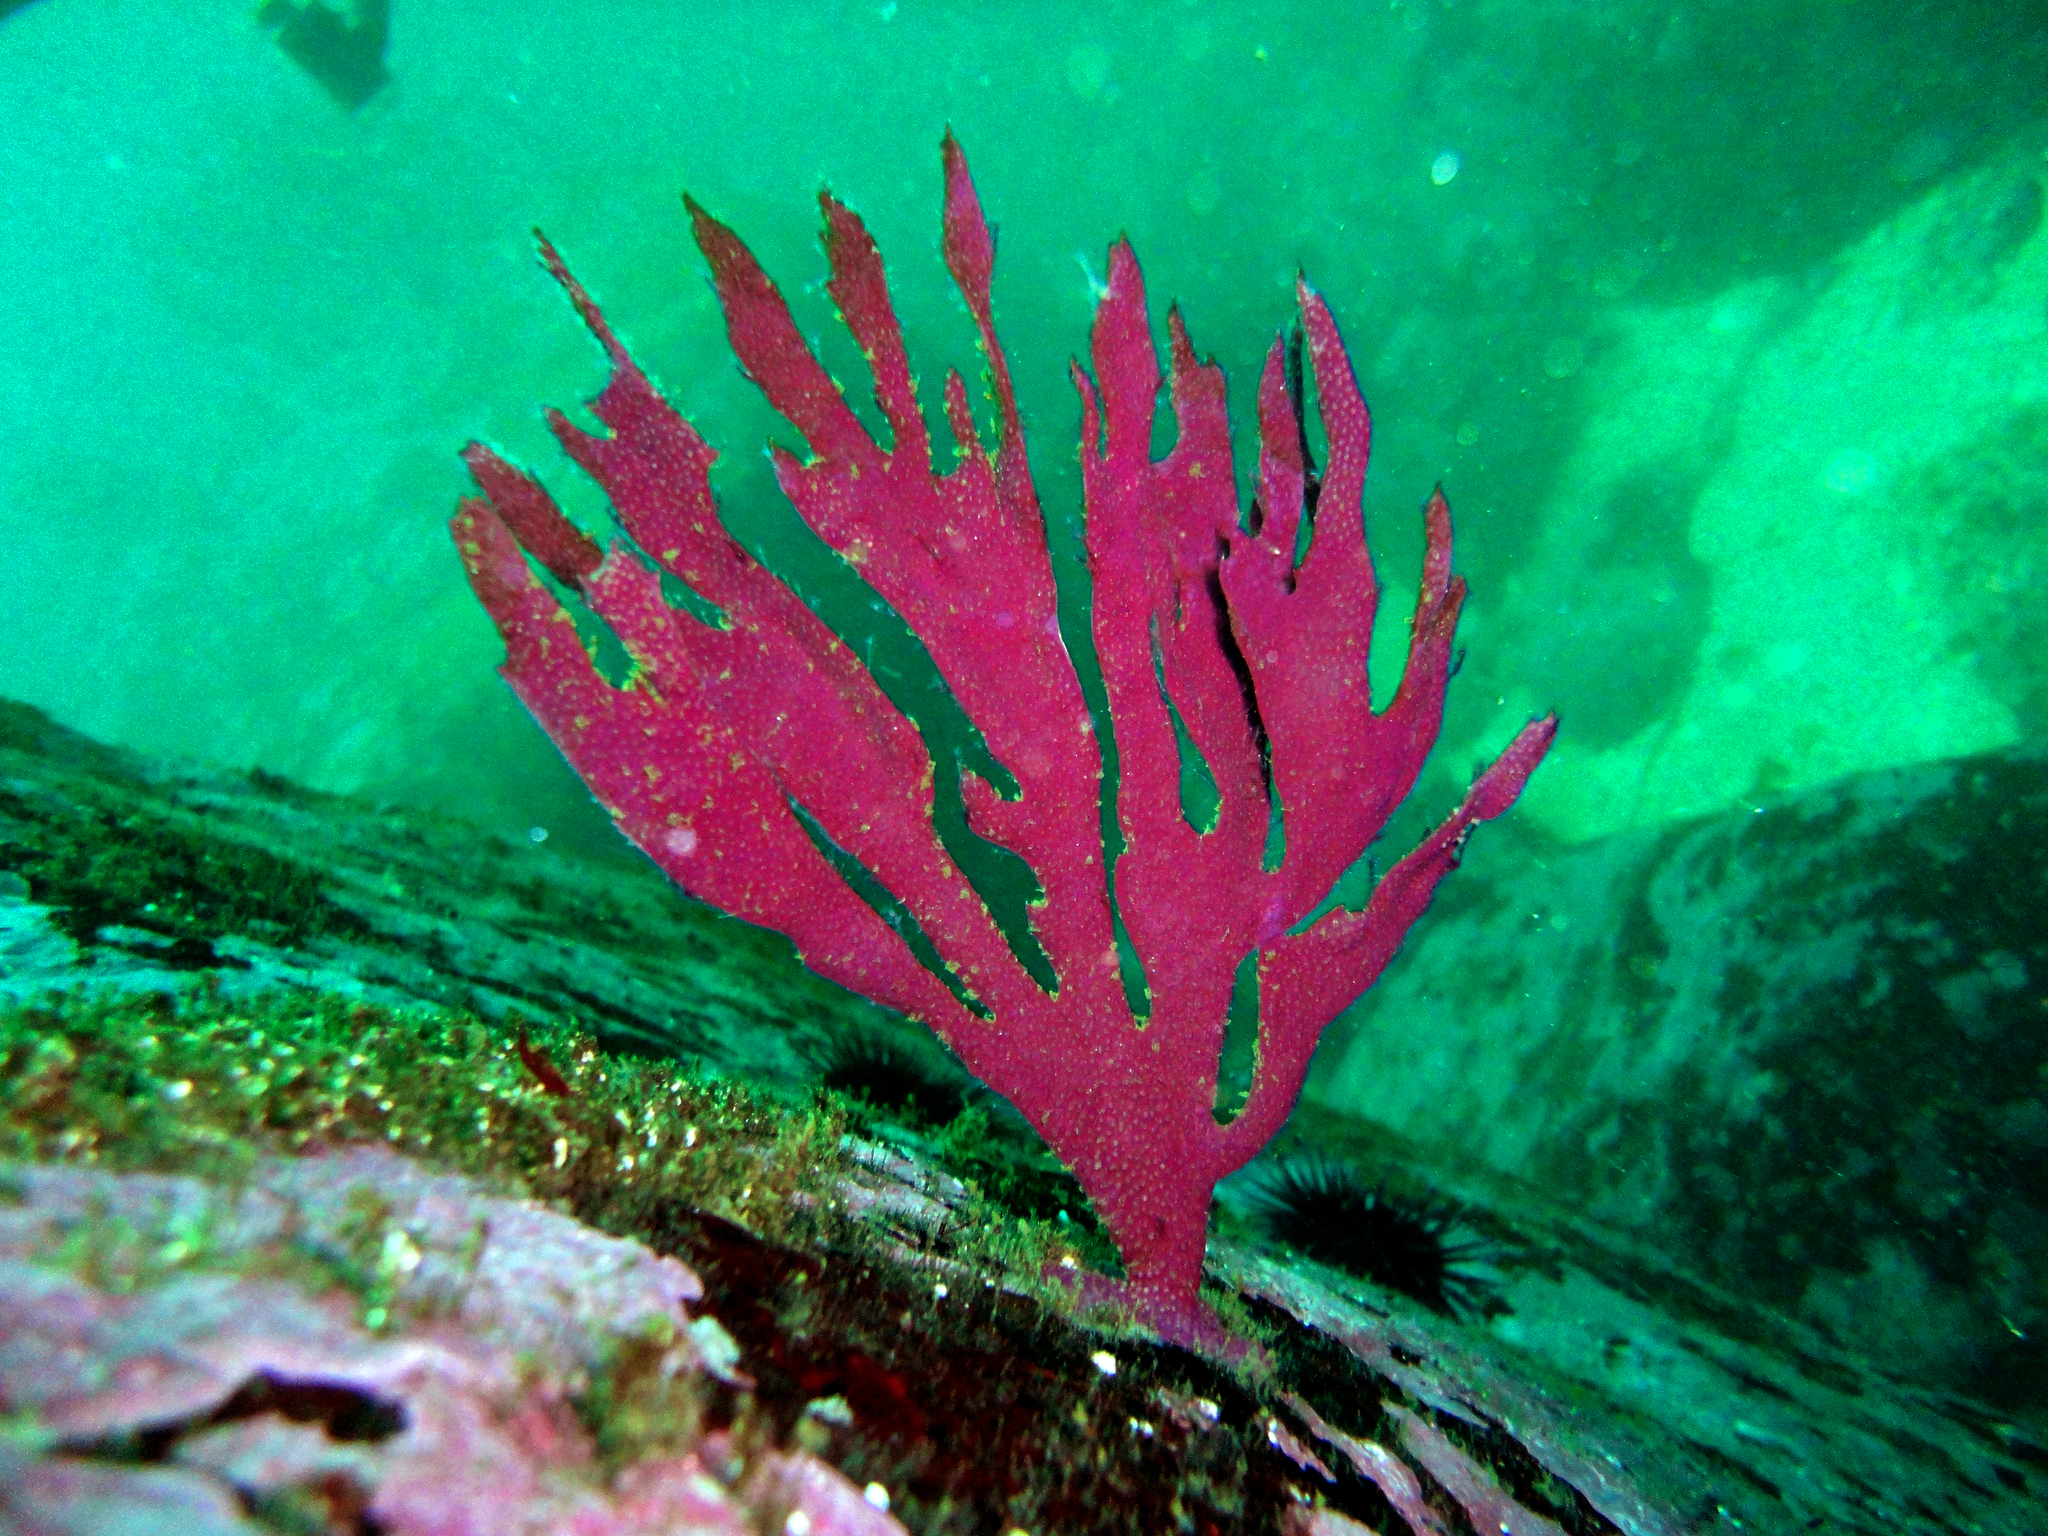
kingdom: Animalia
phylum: Cnidaria
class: Anthozoa
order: Malacalcyonacea
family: Gorgoniidae
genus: Phycogorgia
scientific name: Phycogorgia fucata
